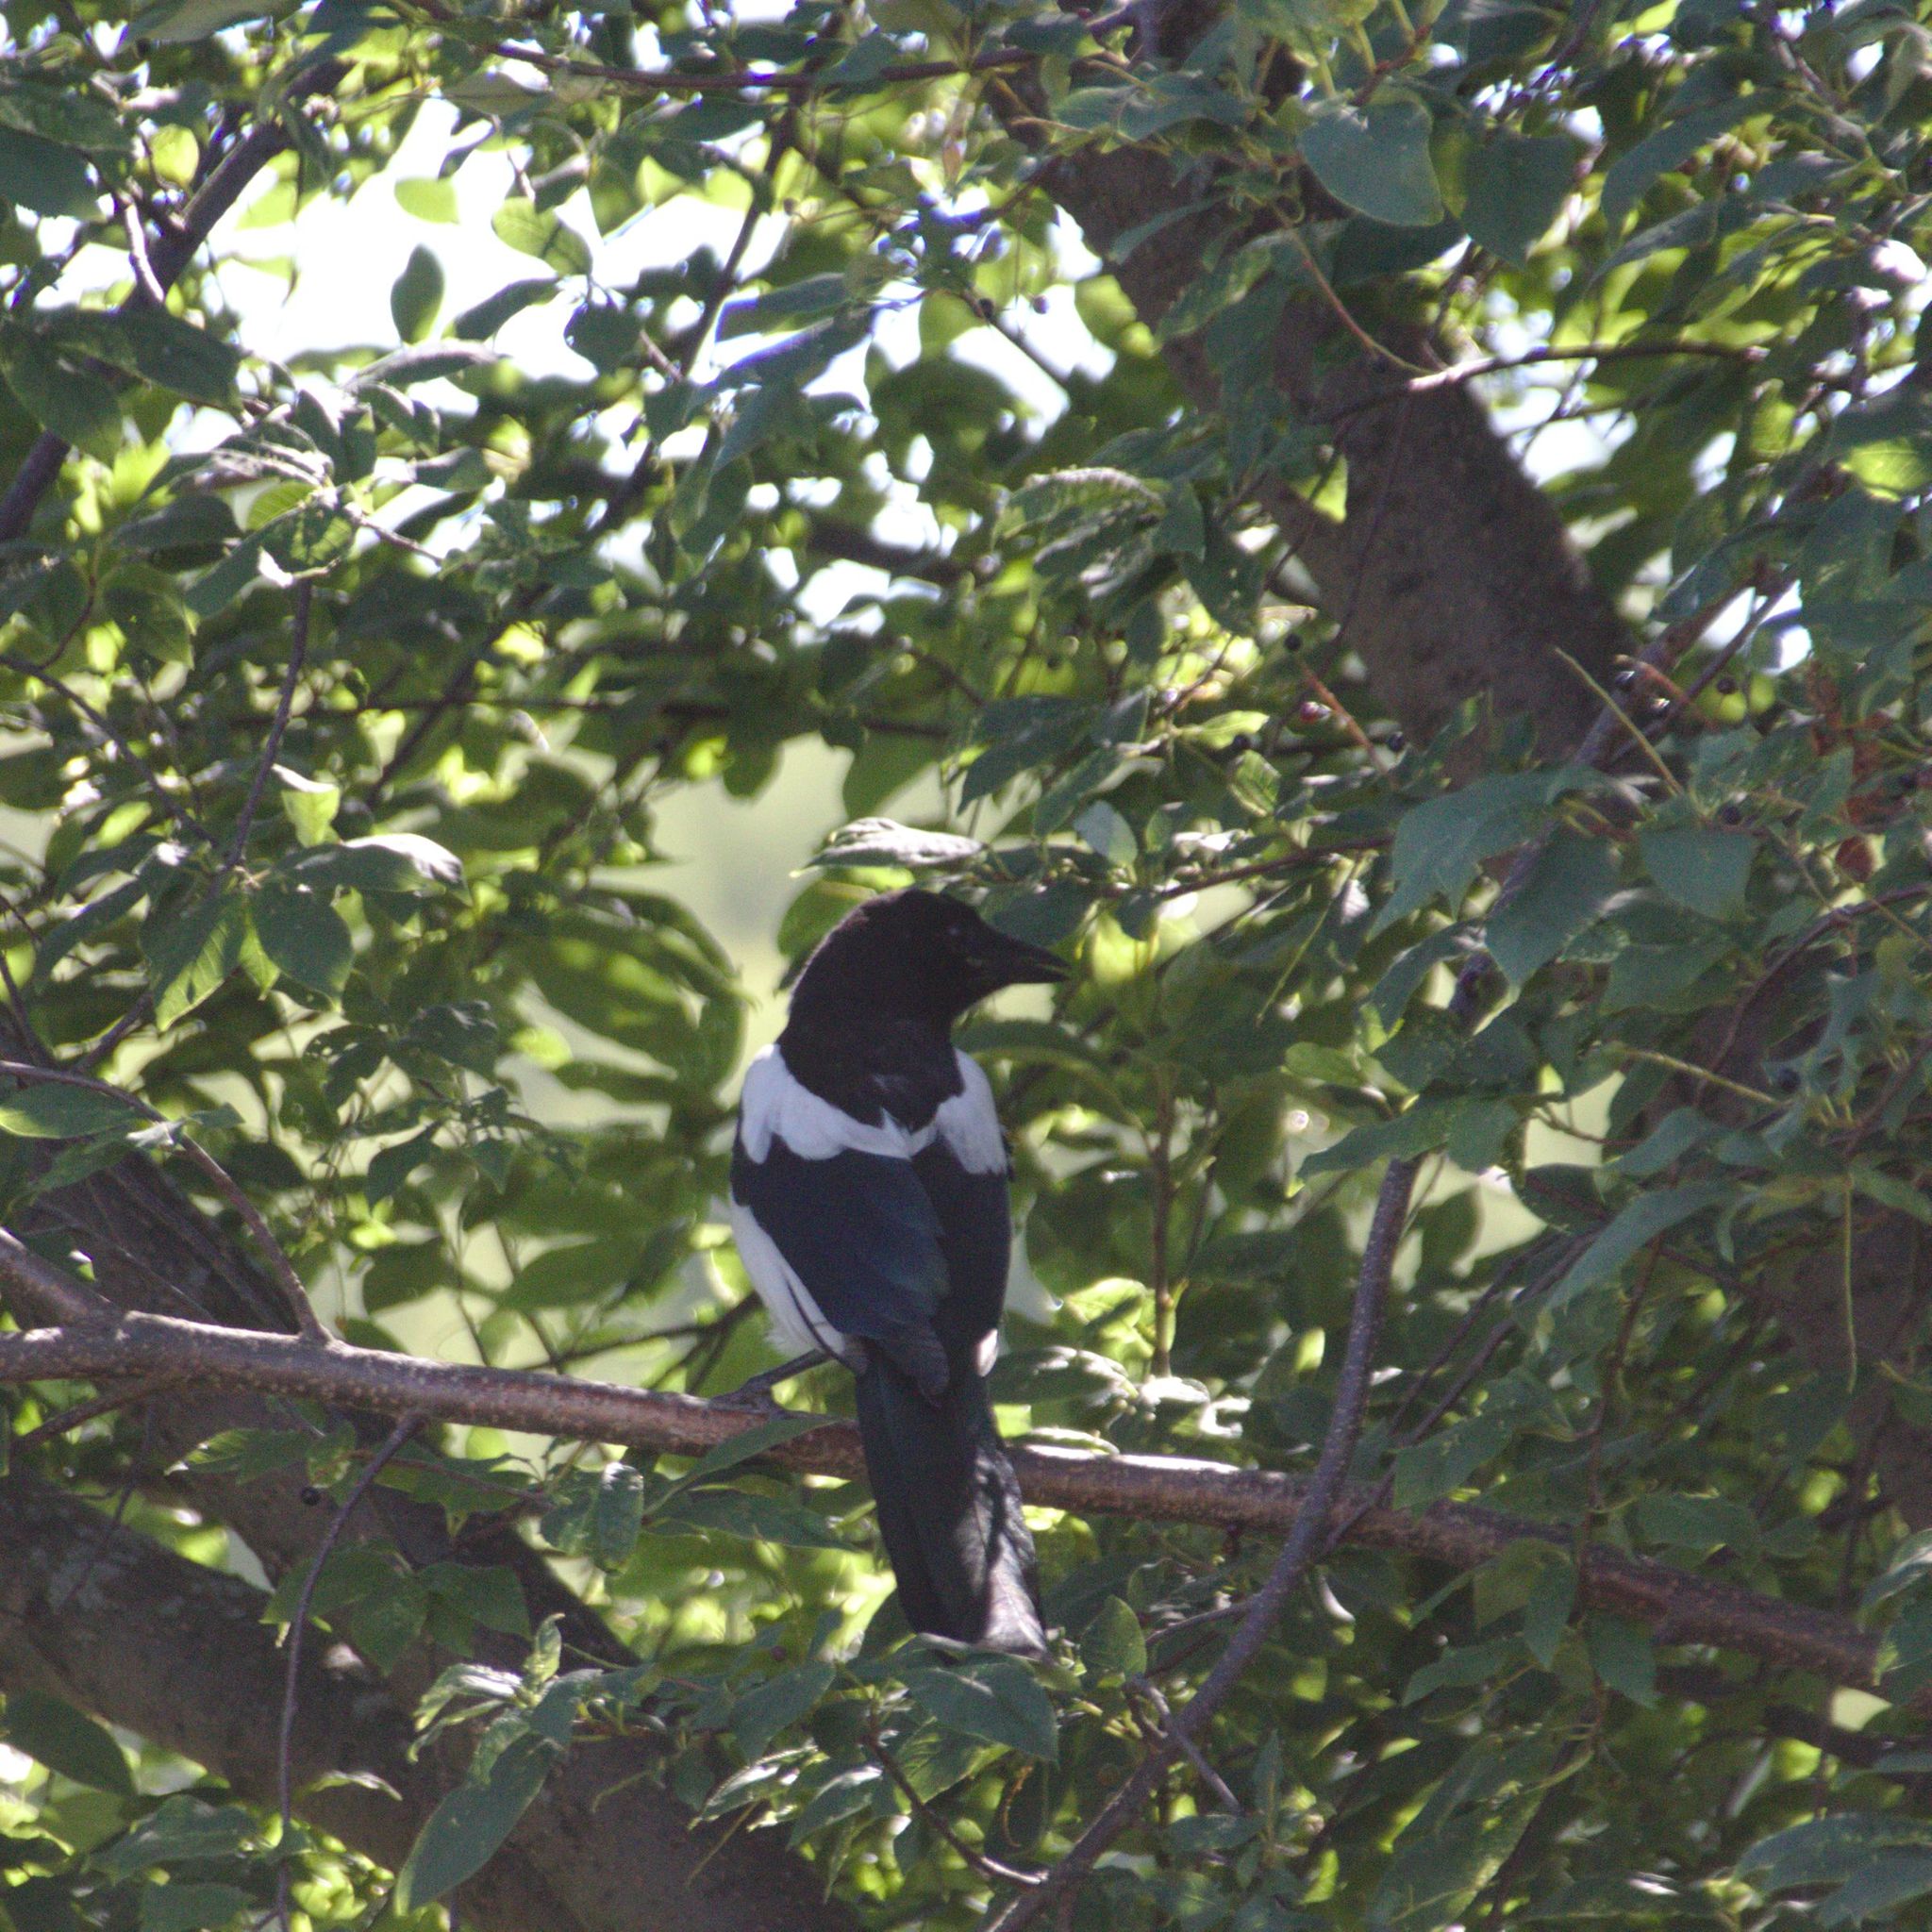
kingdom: Animalia
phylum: Chordata
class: Aves
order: Passeriformes
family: Corvidae
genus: Pica
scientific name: Pica pica
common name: Eurasian magpie
